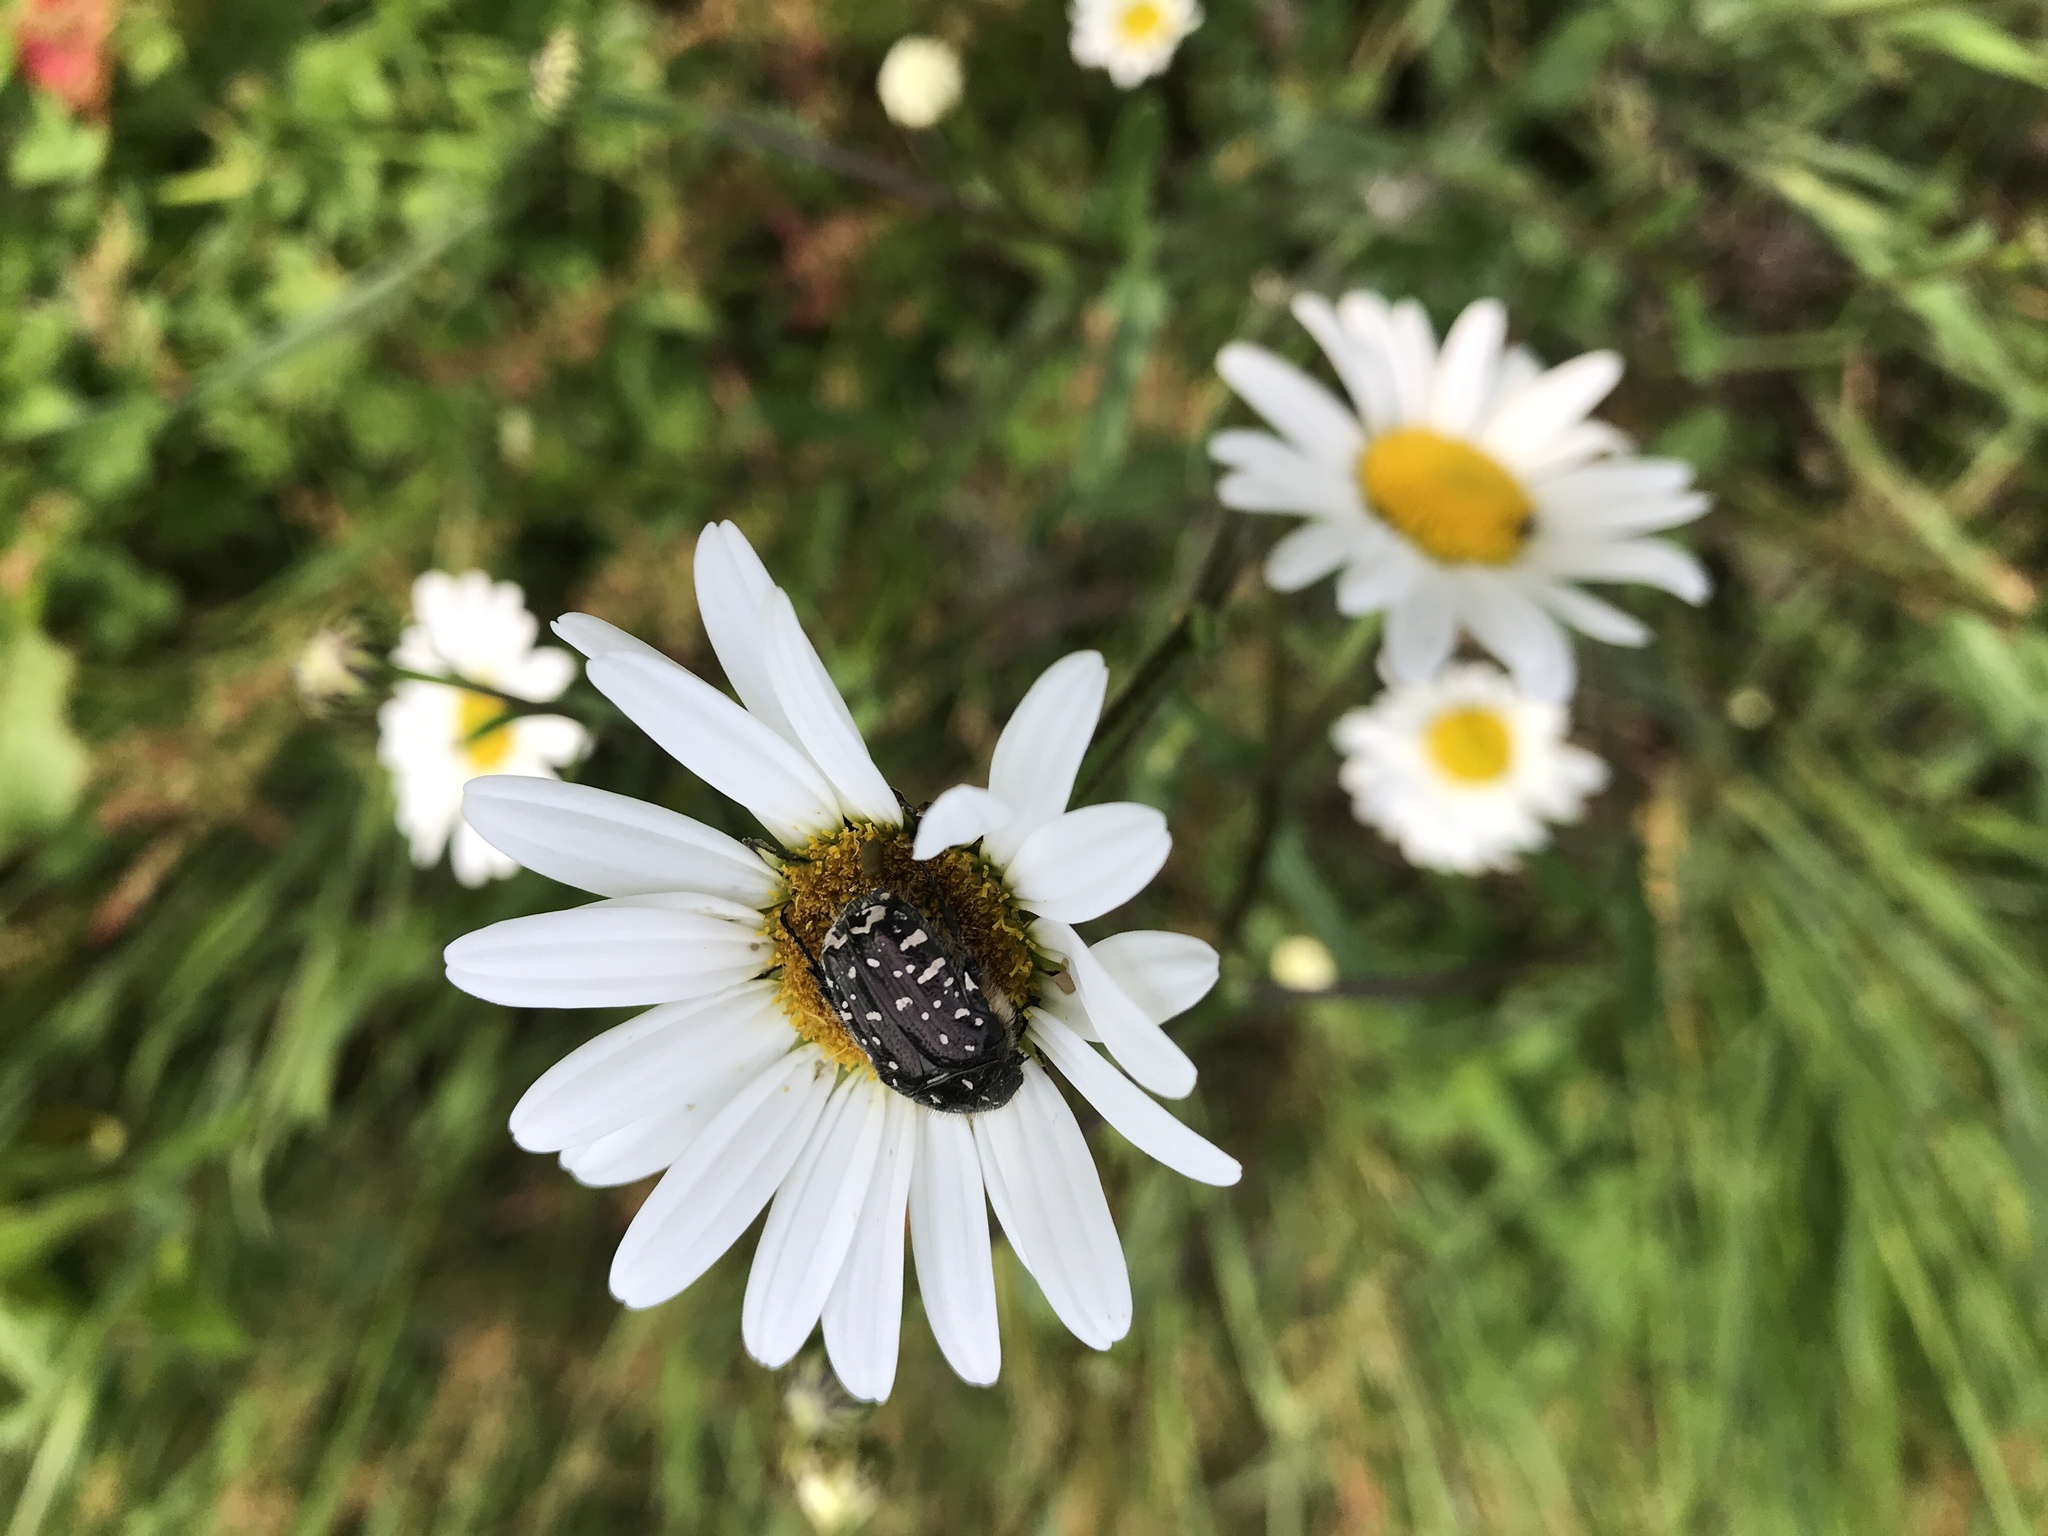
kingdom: Animalia
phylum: Arthropoda
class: Insecta
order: Coleoptera
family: Scarabaeidae
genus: Oxythyrea
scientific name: Oxythyrea funesta
